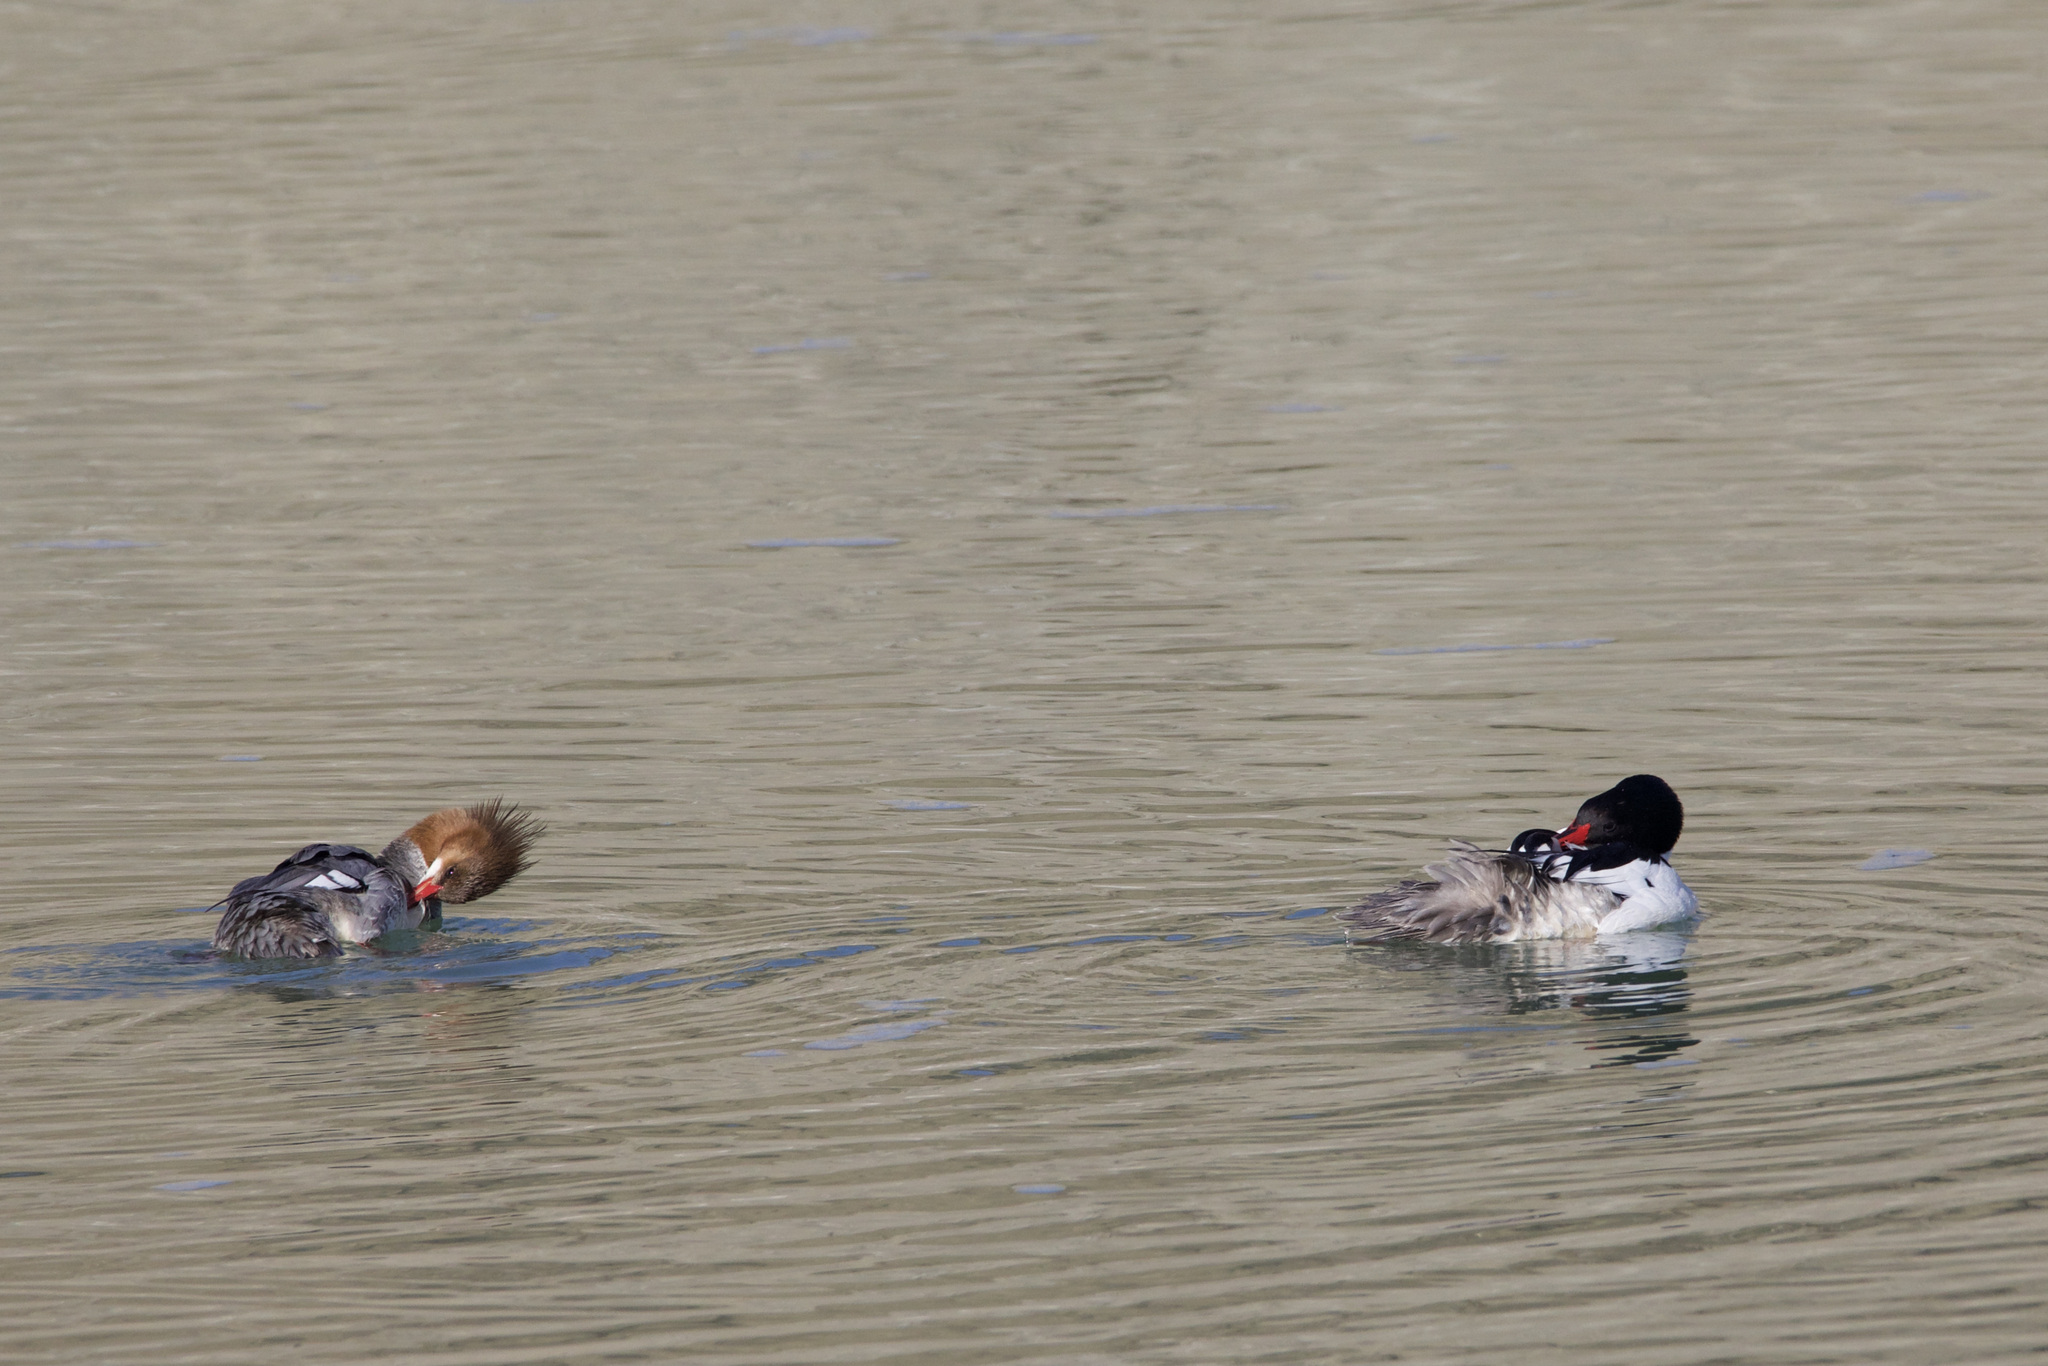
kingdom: Animalia
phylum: Chordata
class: Aves
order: Anseriformes
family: Anatidae
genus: Mergus
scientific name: Mergus merganser
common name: Common merganser
